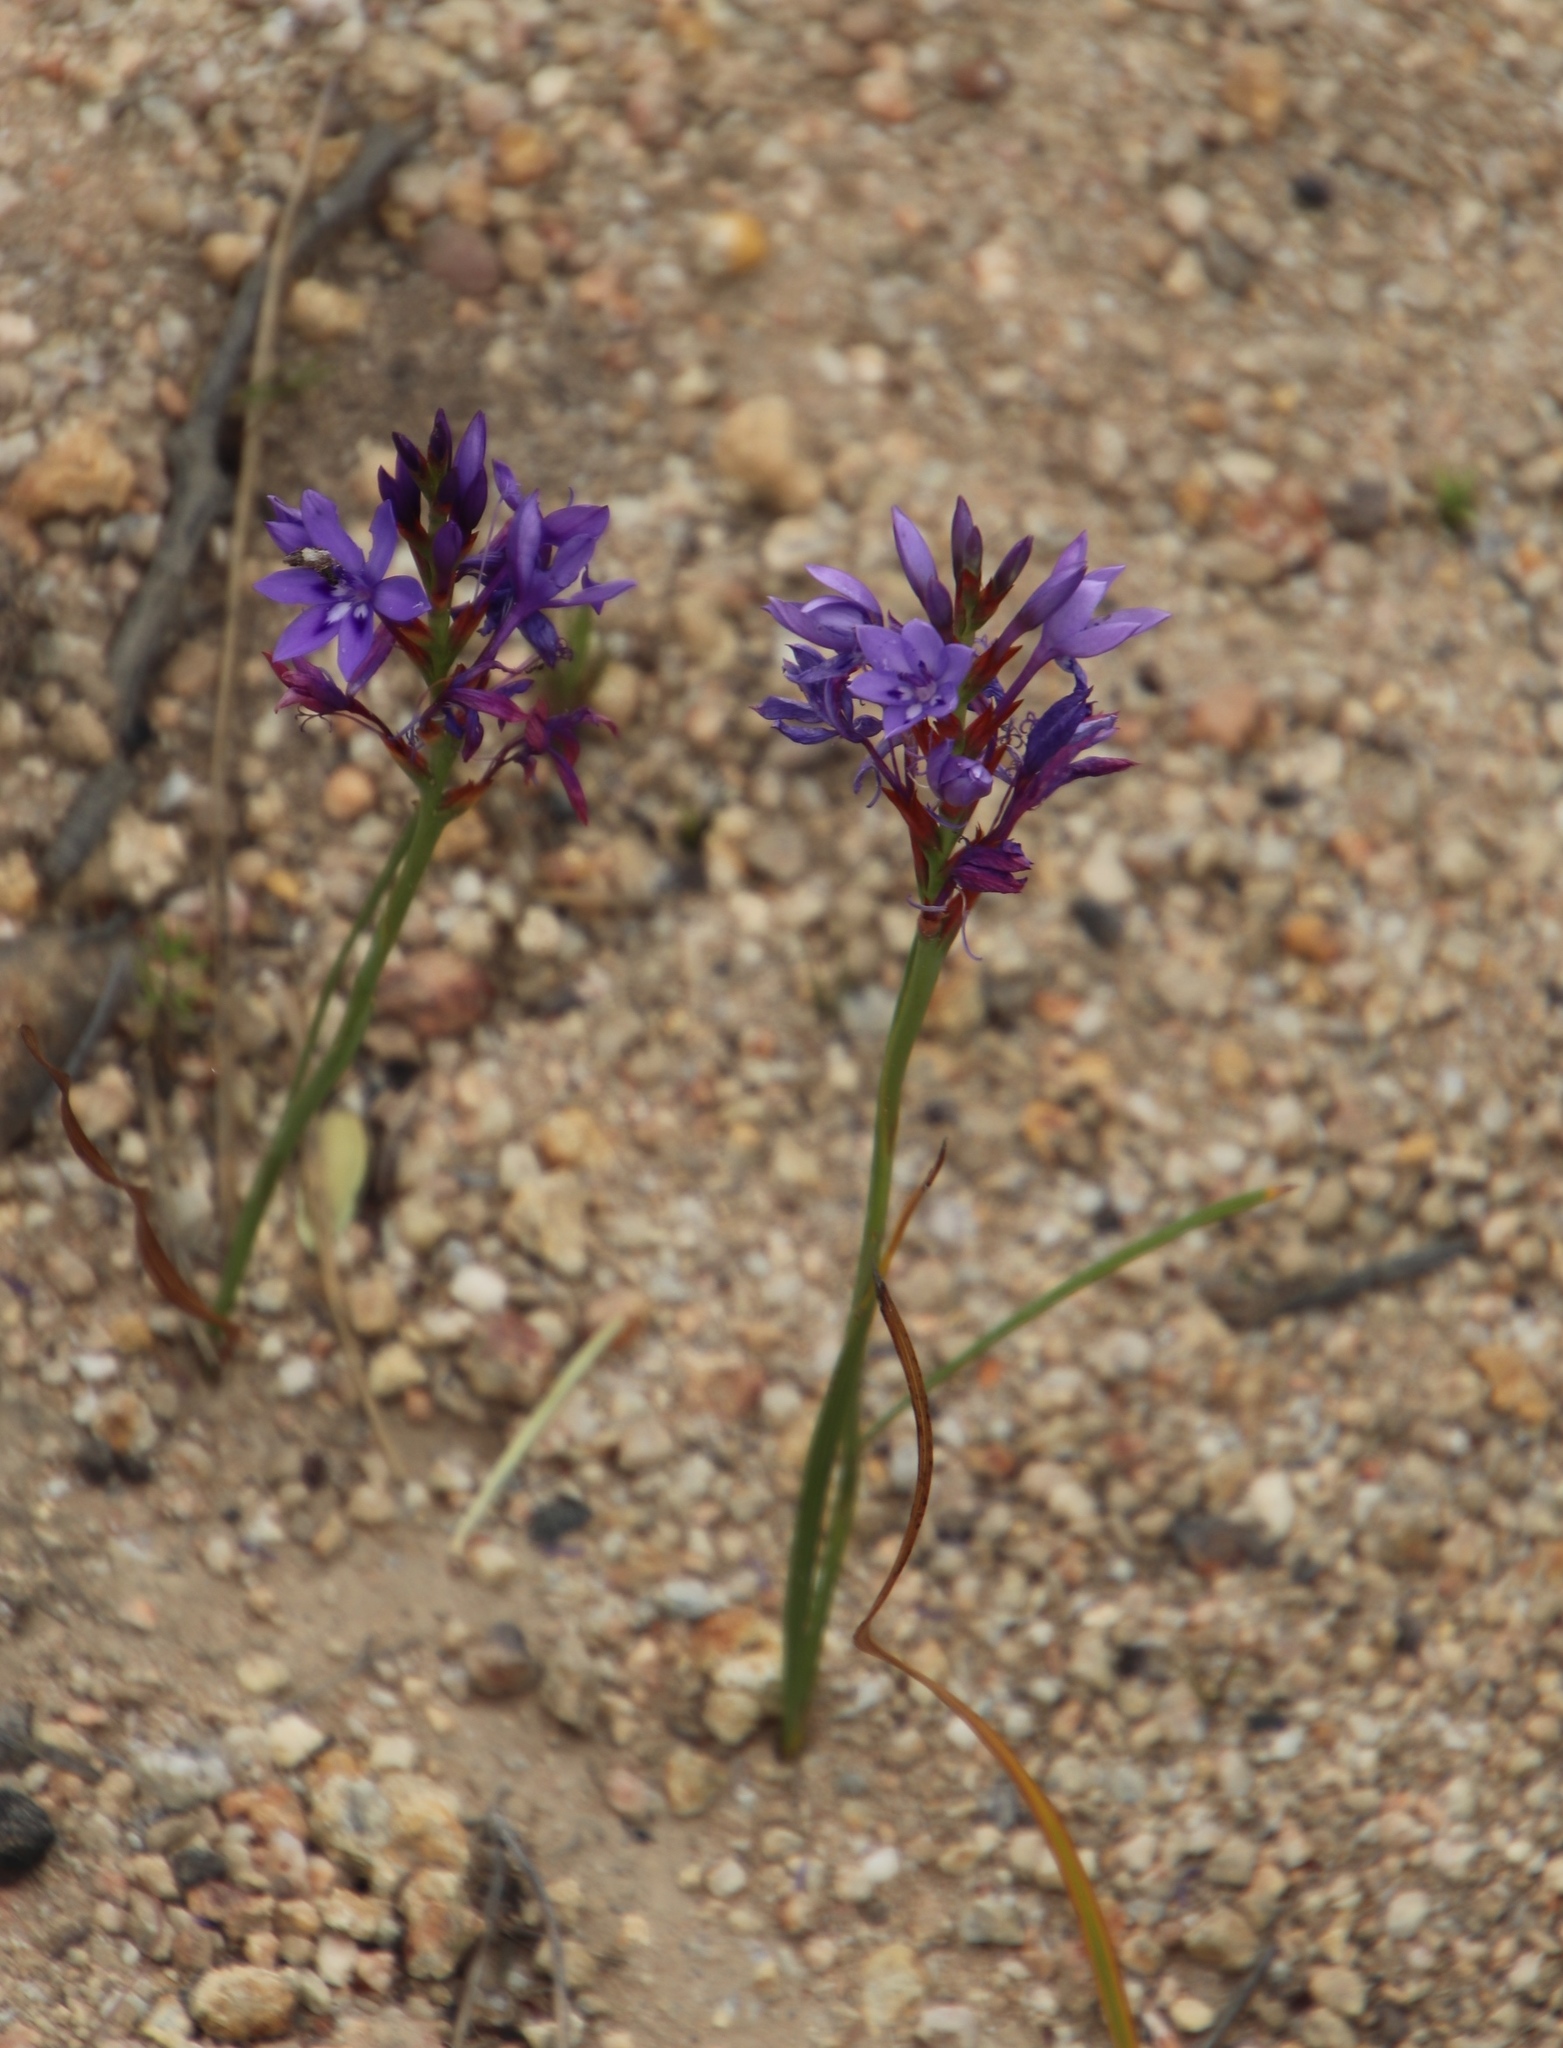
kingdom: Plantae
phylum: Tracheophyta
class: Liliopsida
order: Asparagales
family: Iridaceae
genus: Thereianthus
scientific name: Thereianthus spicatus
